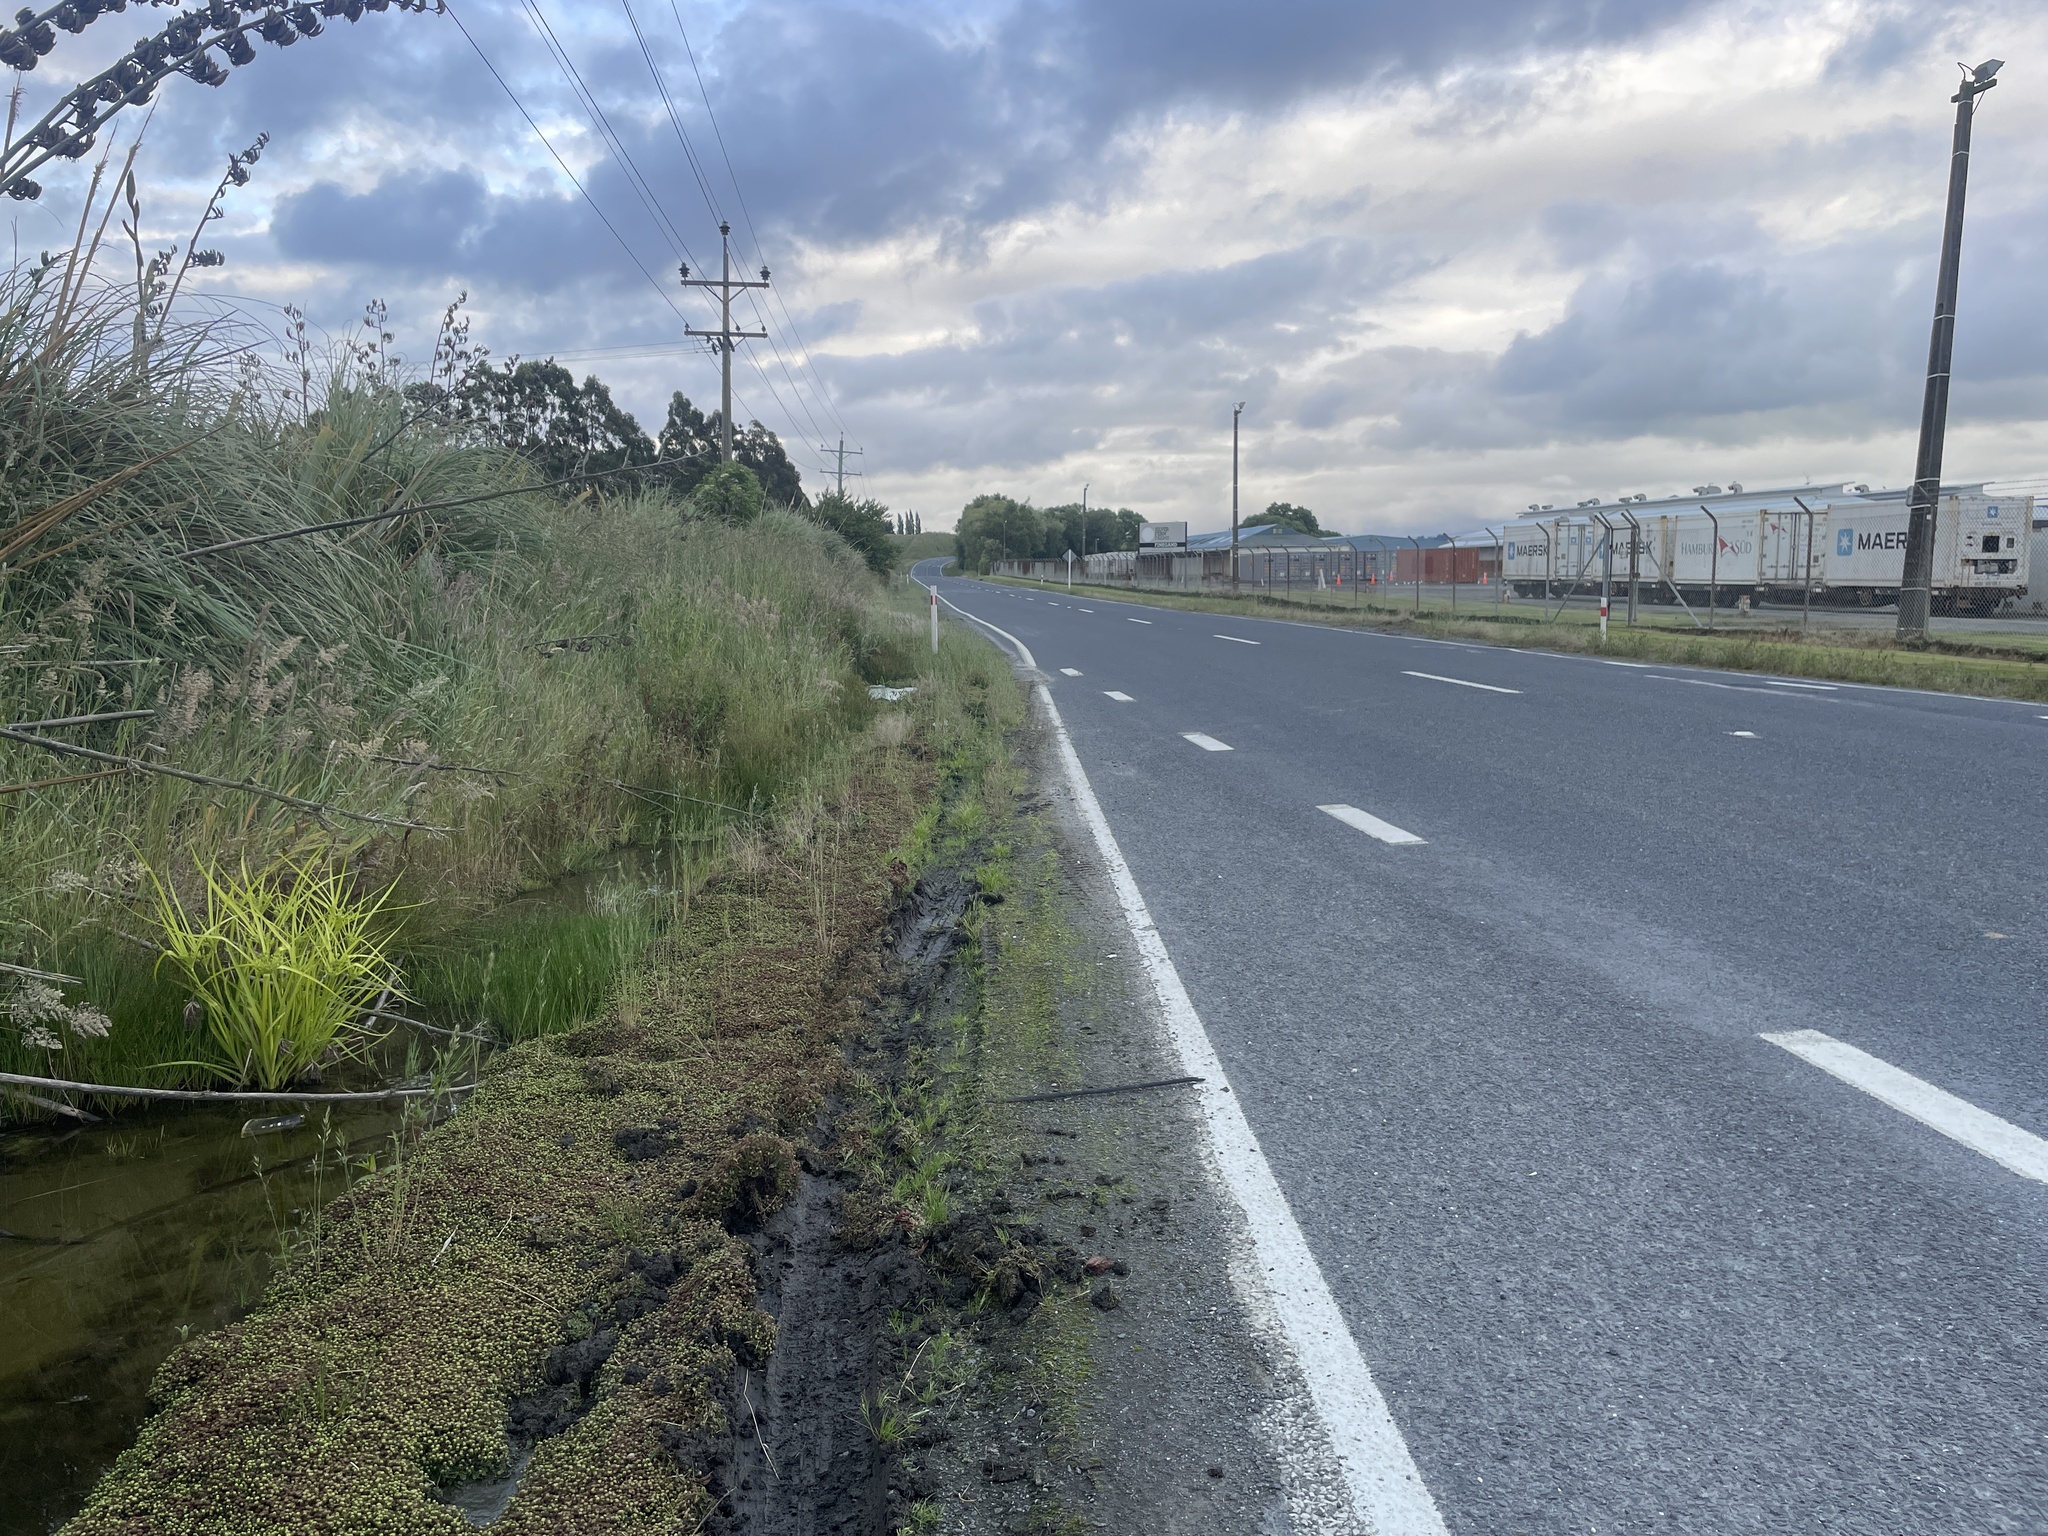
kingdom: Plantae
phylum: Tracheophyta
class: Liliopsida
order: Poales
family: Cyperaceae
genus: Cyperus
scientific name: Cyperus eragrostis
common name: Tall flatsedge
